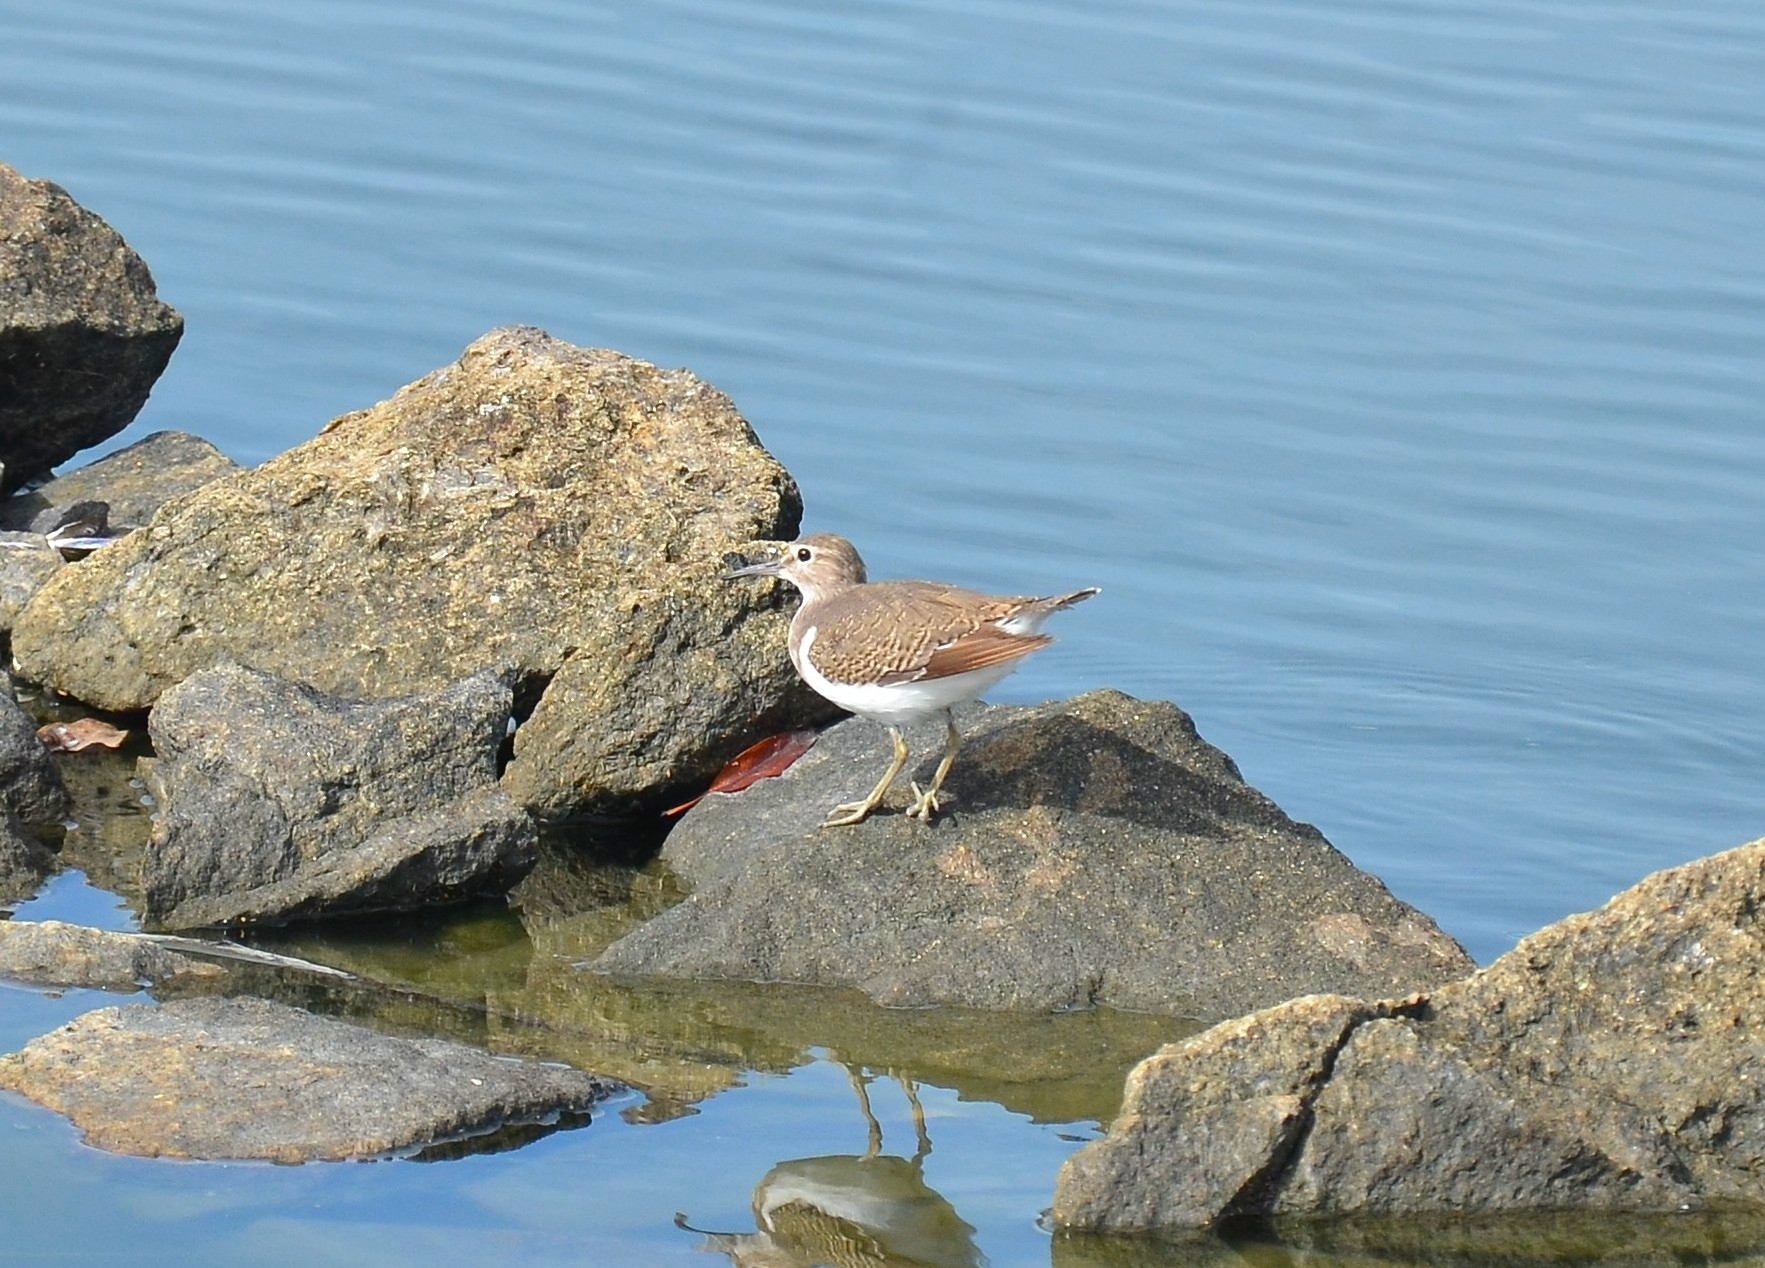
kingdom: Animalia
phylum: Chordata
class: Aves
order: Charadriiformes
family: Scolopacidae
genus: Actitis
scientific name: Actitis hypoleucos
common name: Common sandpiper
